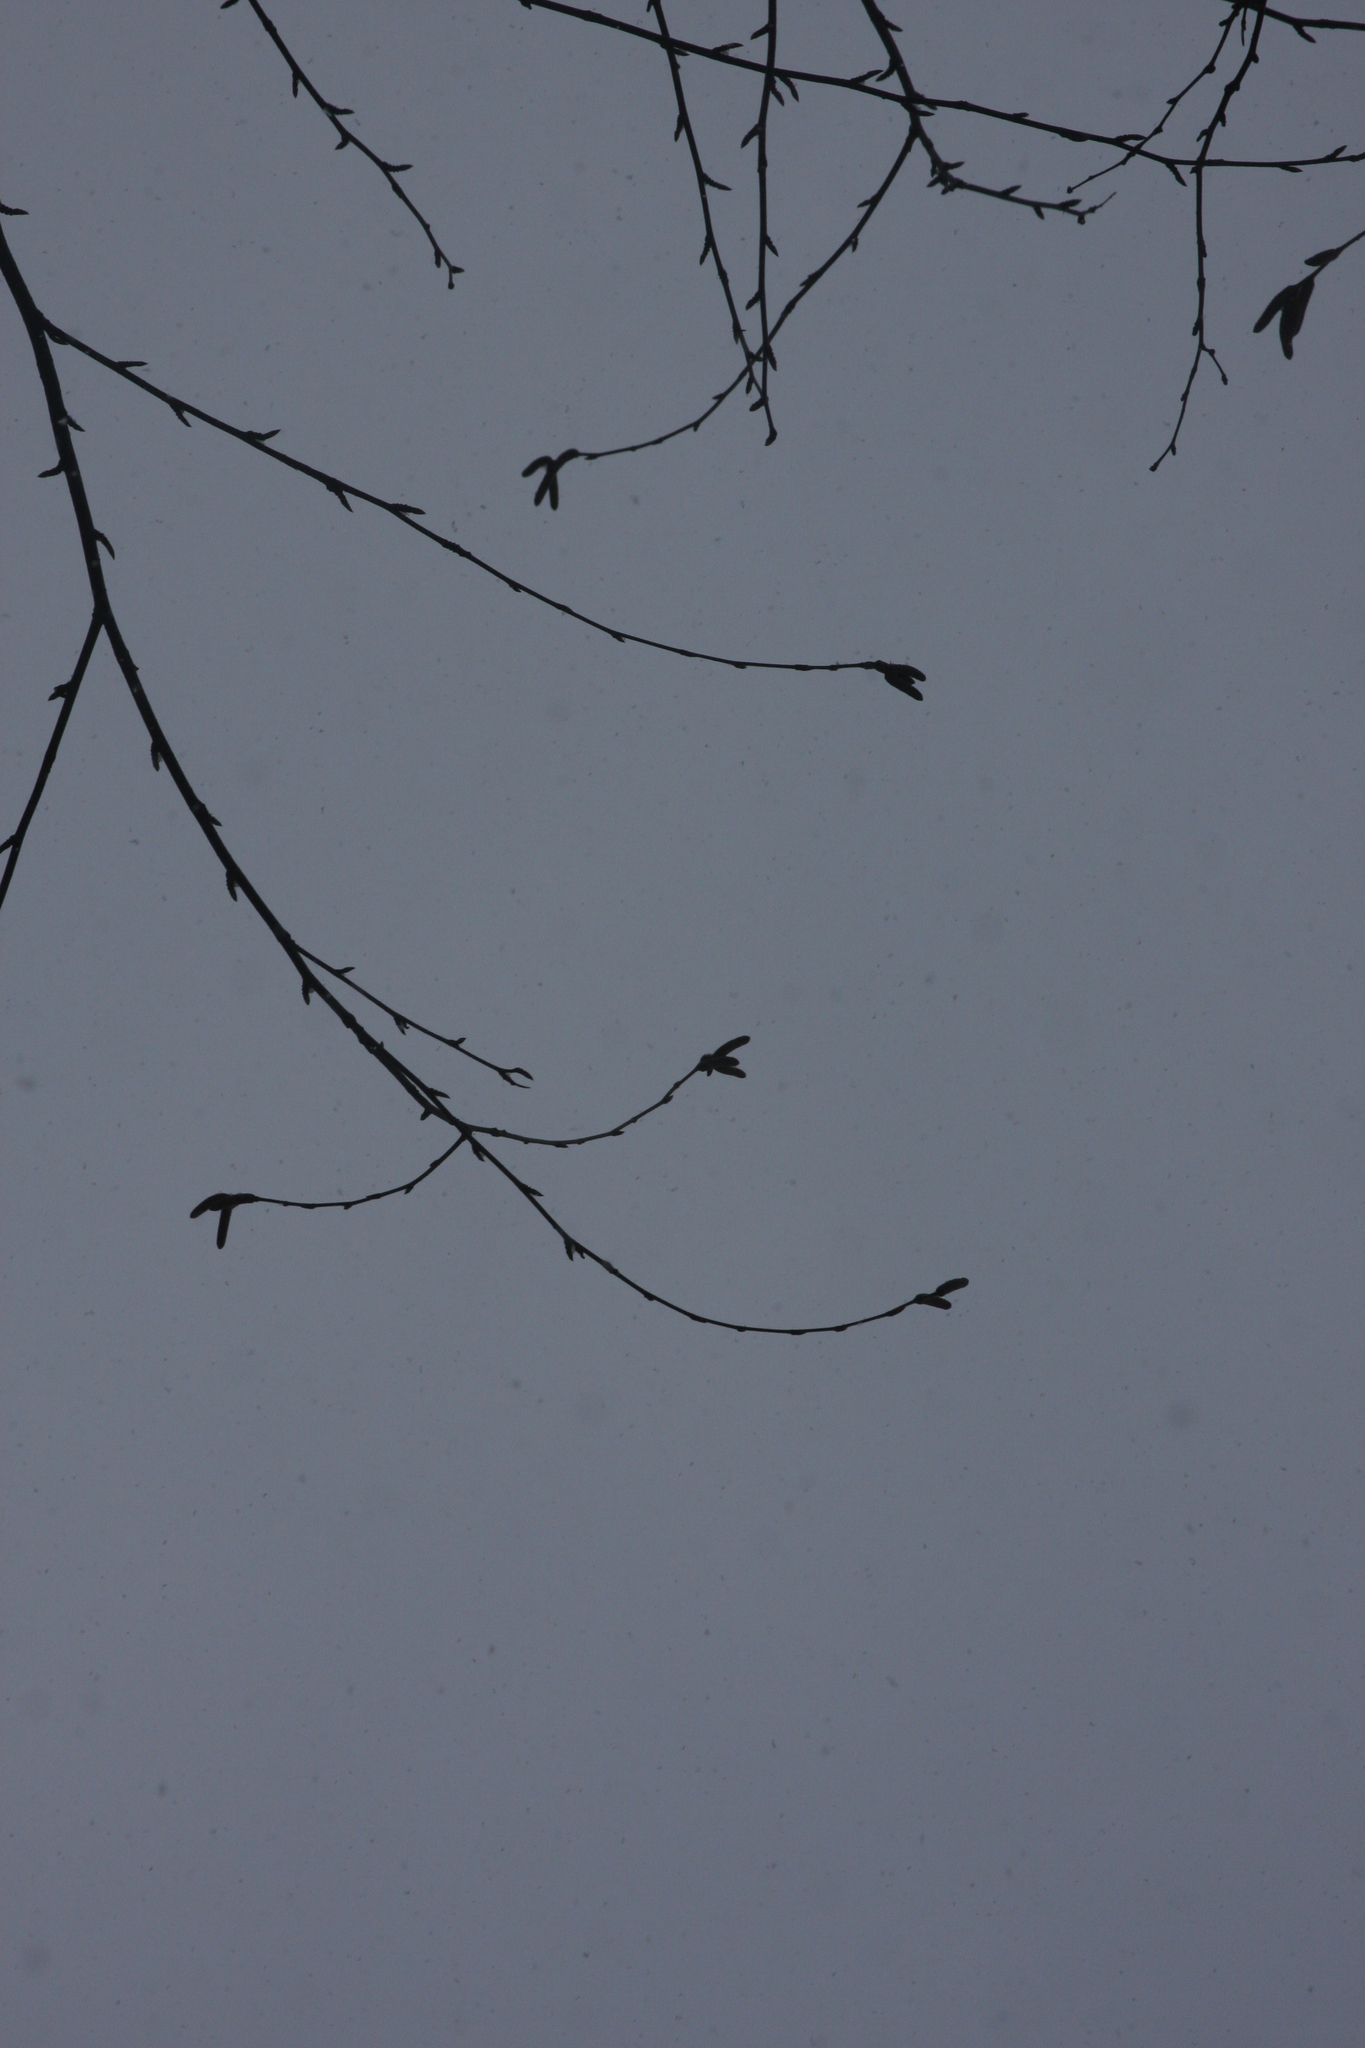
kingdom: Plantae
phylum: Tracheophyta
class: Magnoliopsida
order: Fagales
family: Betulaceae
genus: Betula
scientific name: Betula alleghaniensis
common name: Yellow birch
